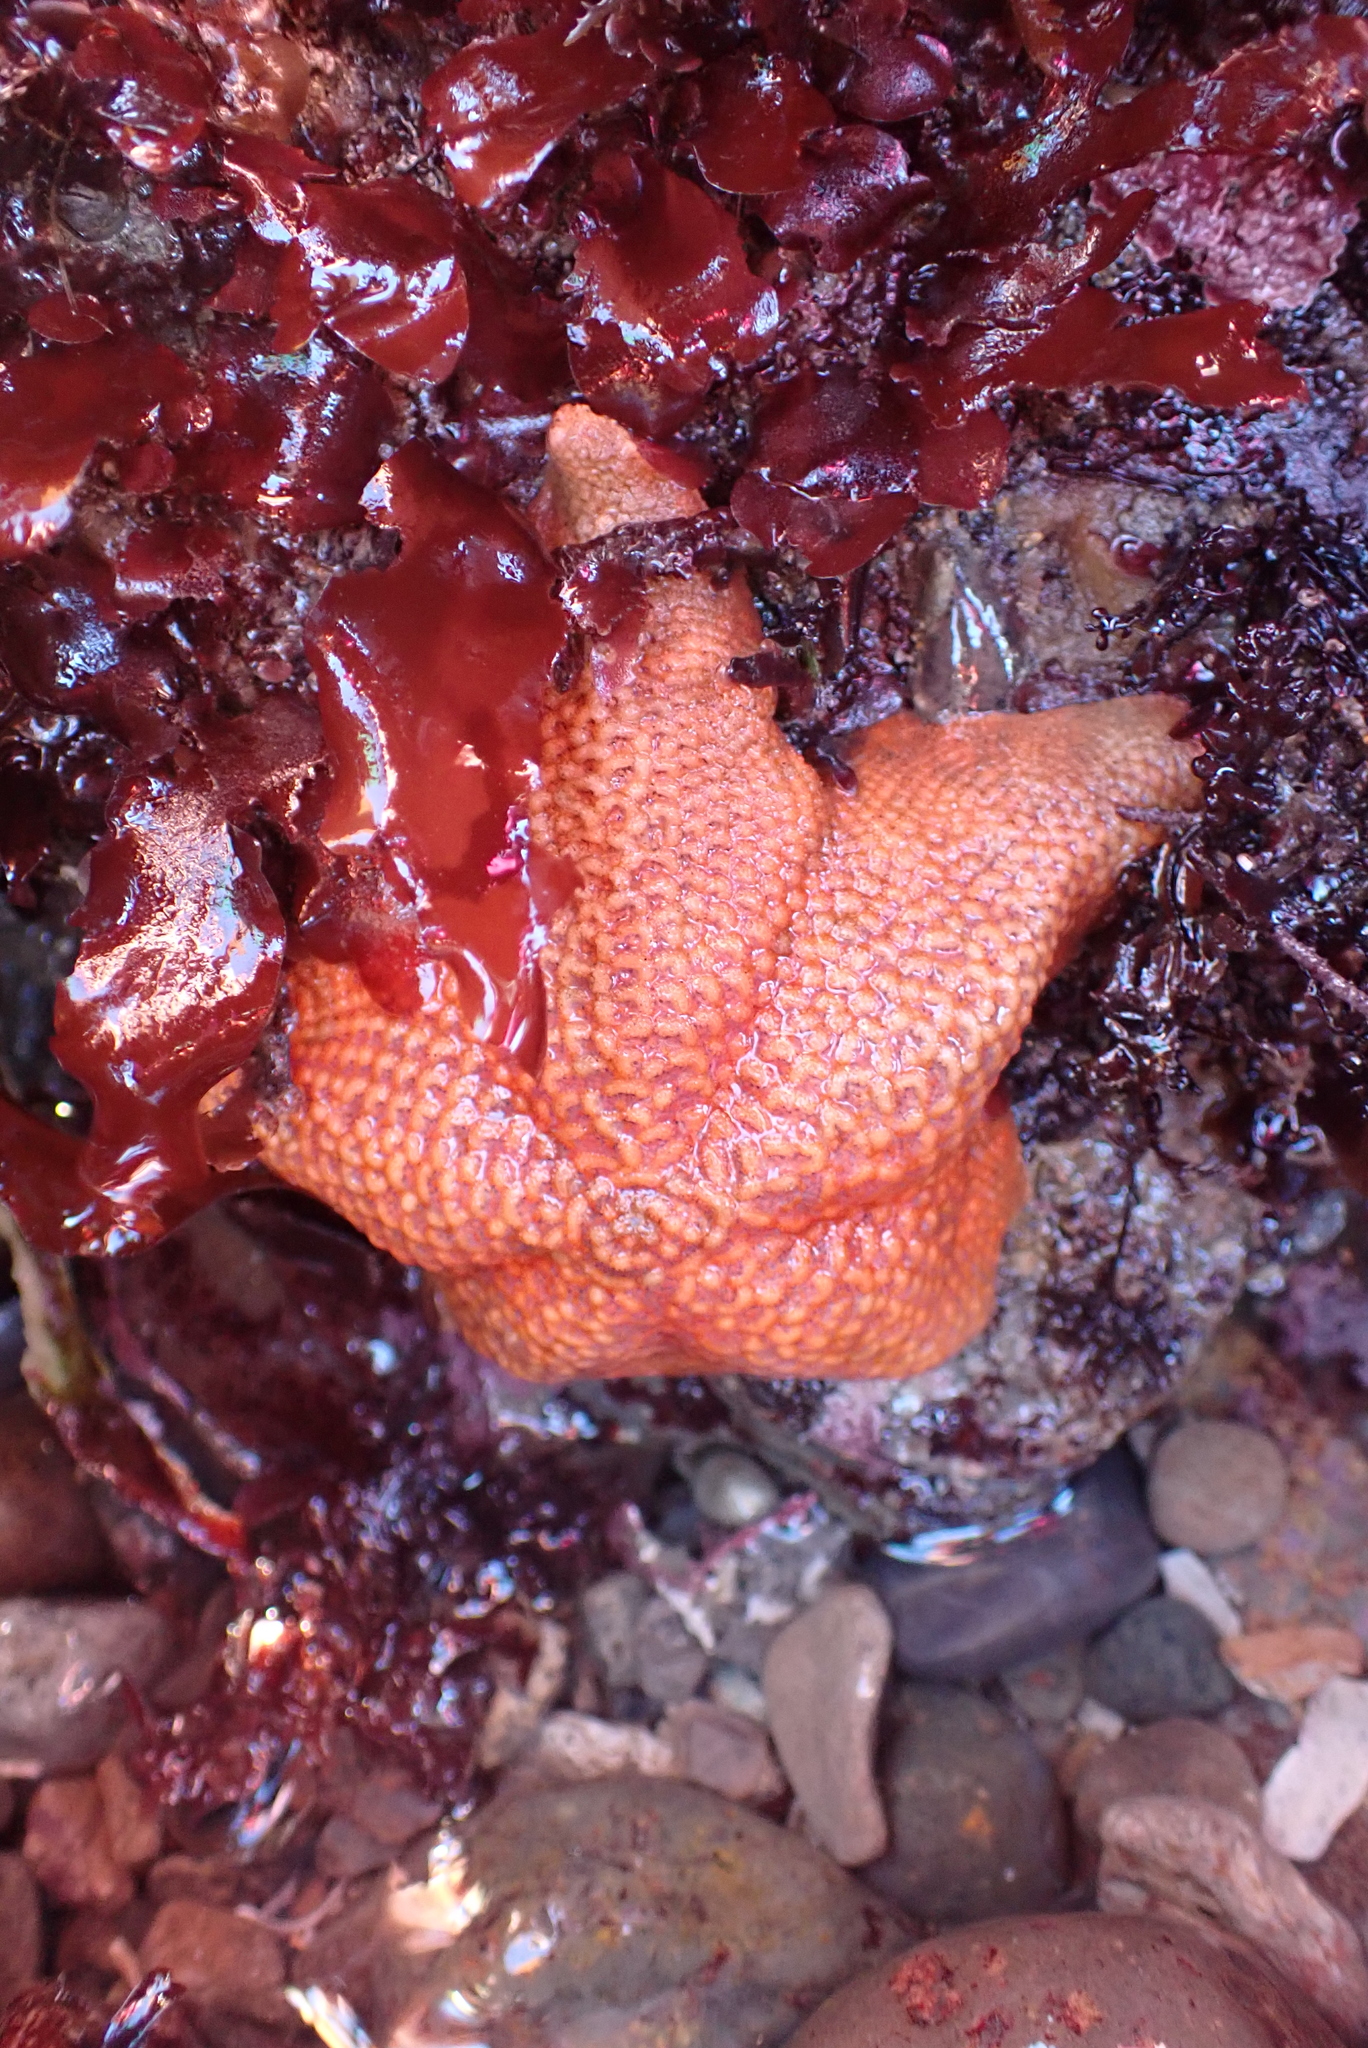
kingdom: Animalia
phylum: Echinodermata
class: Asteroidea
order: Valvatida
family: Asterinidae
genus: Patiria
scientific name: Patiria miniata
